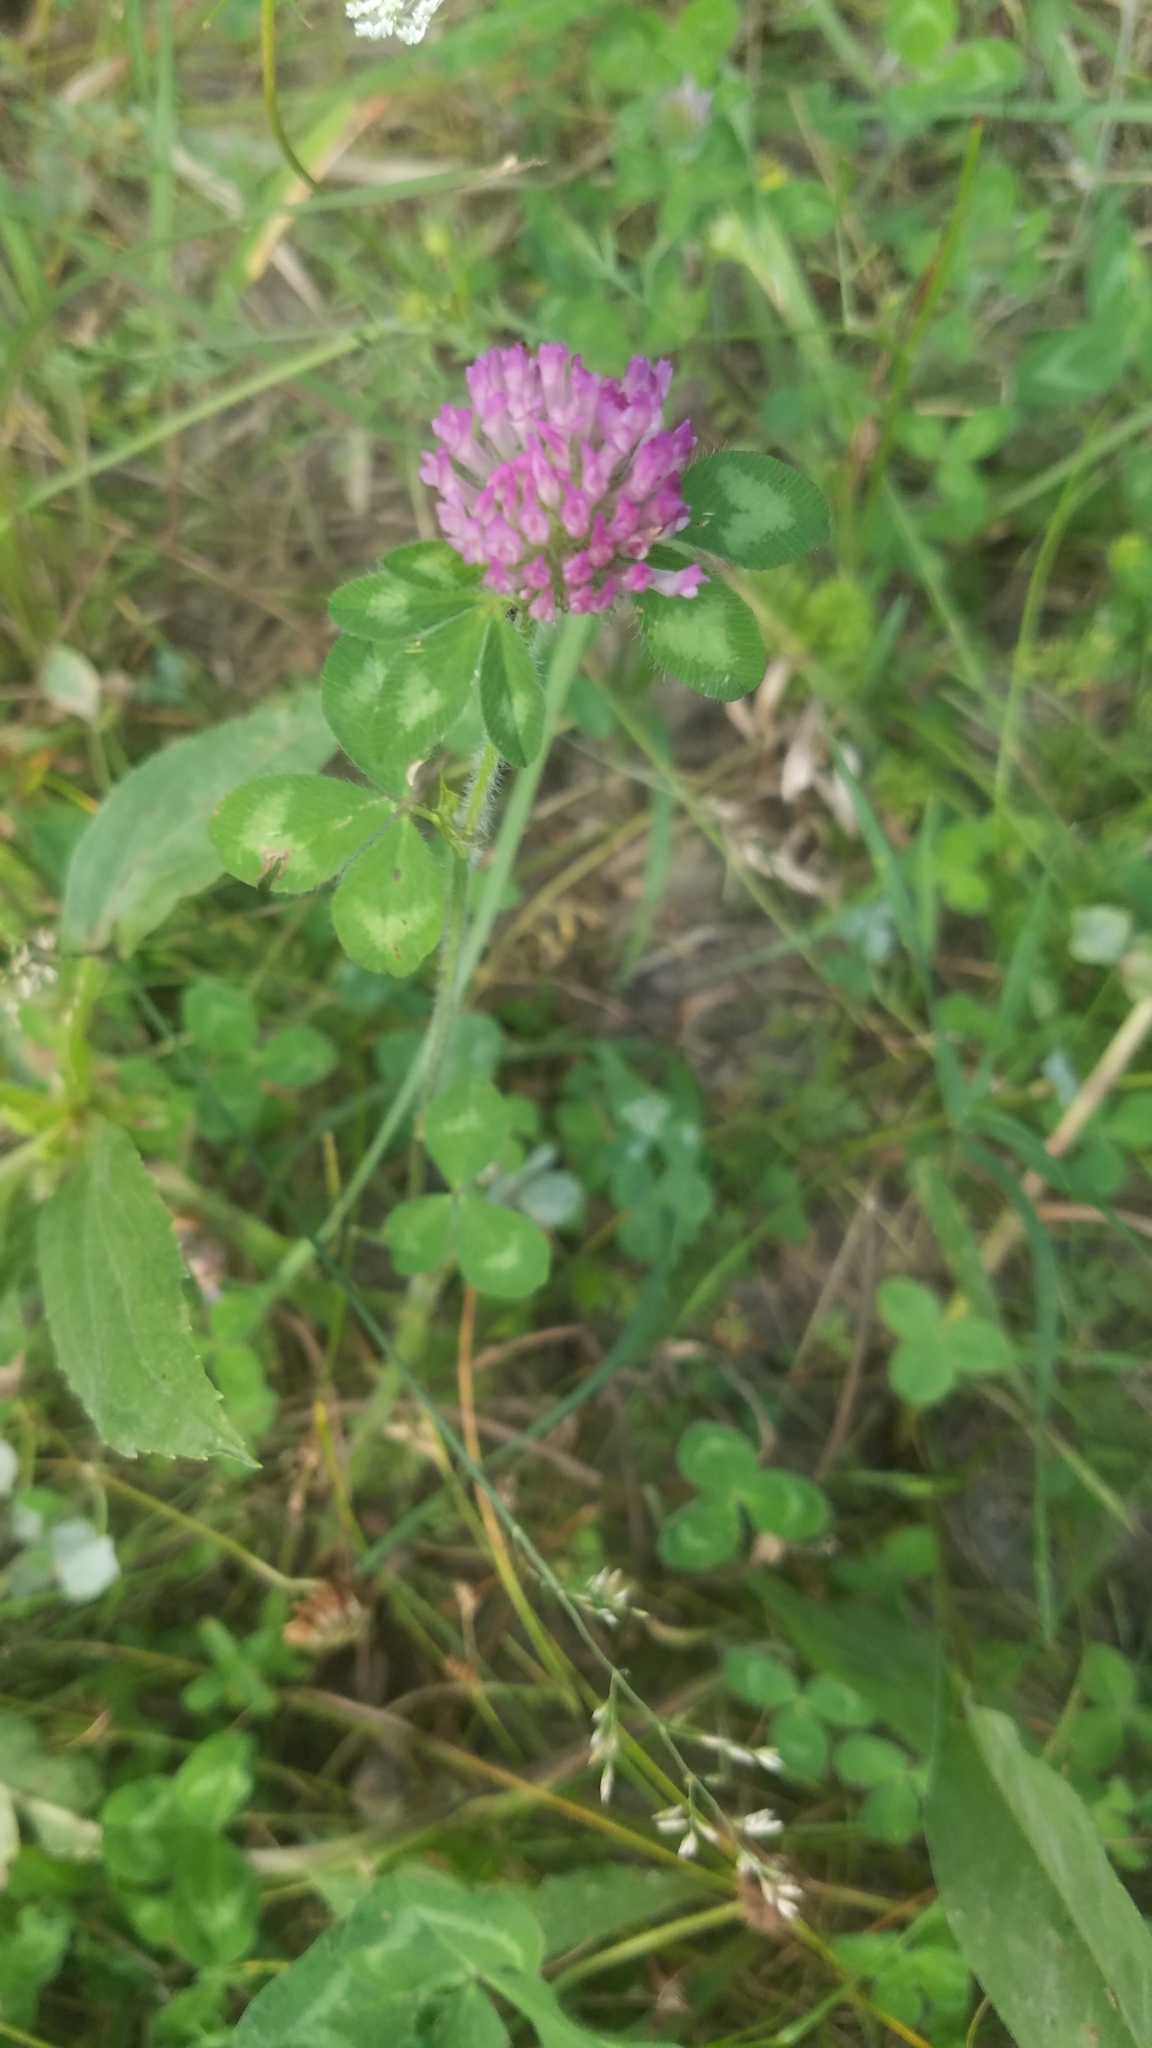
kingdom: Plantae
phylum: Tracheophyta
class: Magnoliopsida
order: Fabales
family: Fabaceae
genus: Trifolium
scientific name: Trifolium pratense
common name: Red clover
